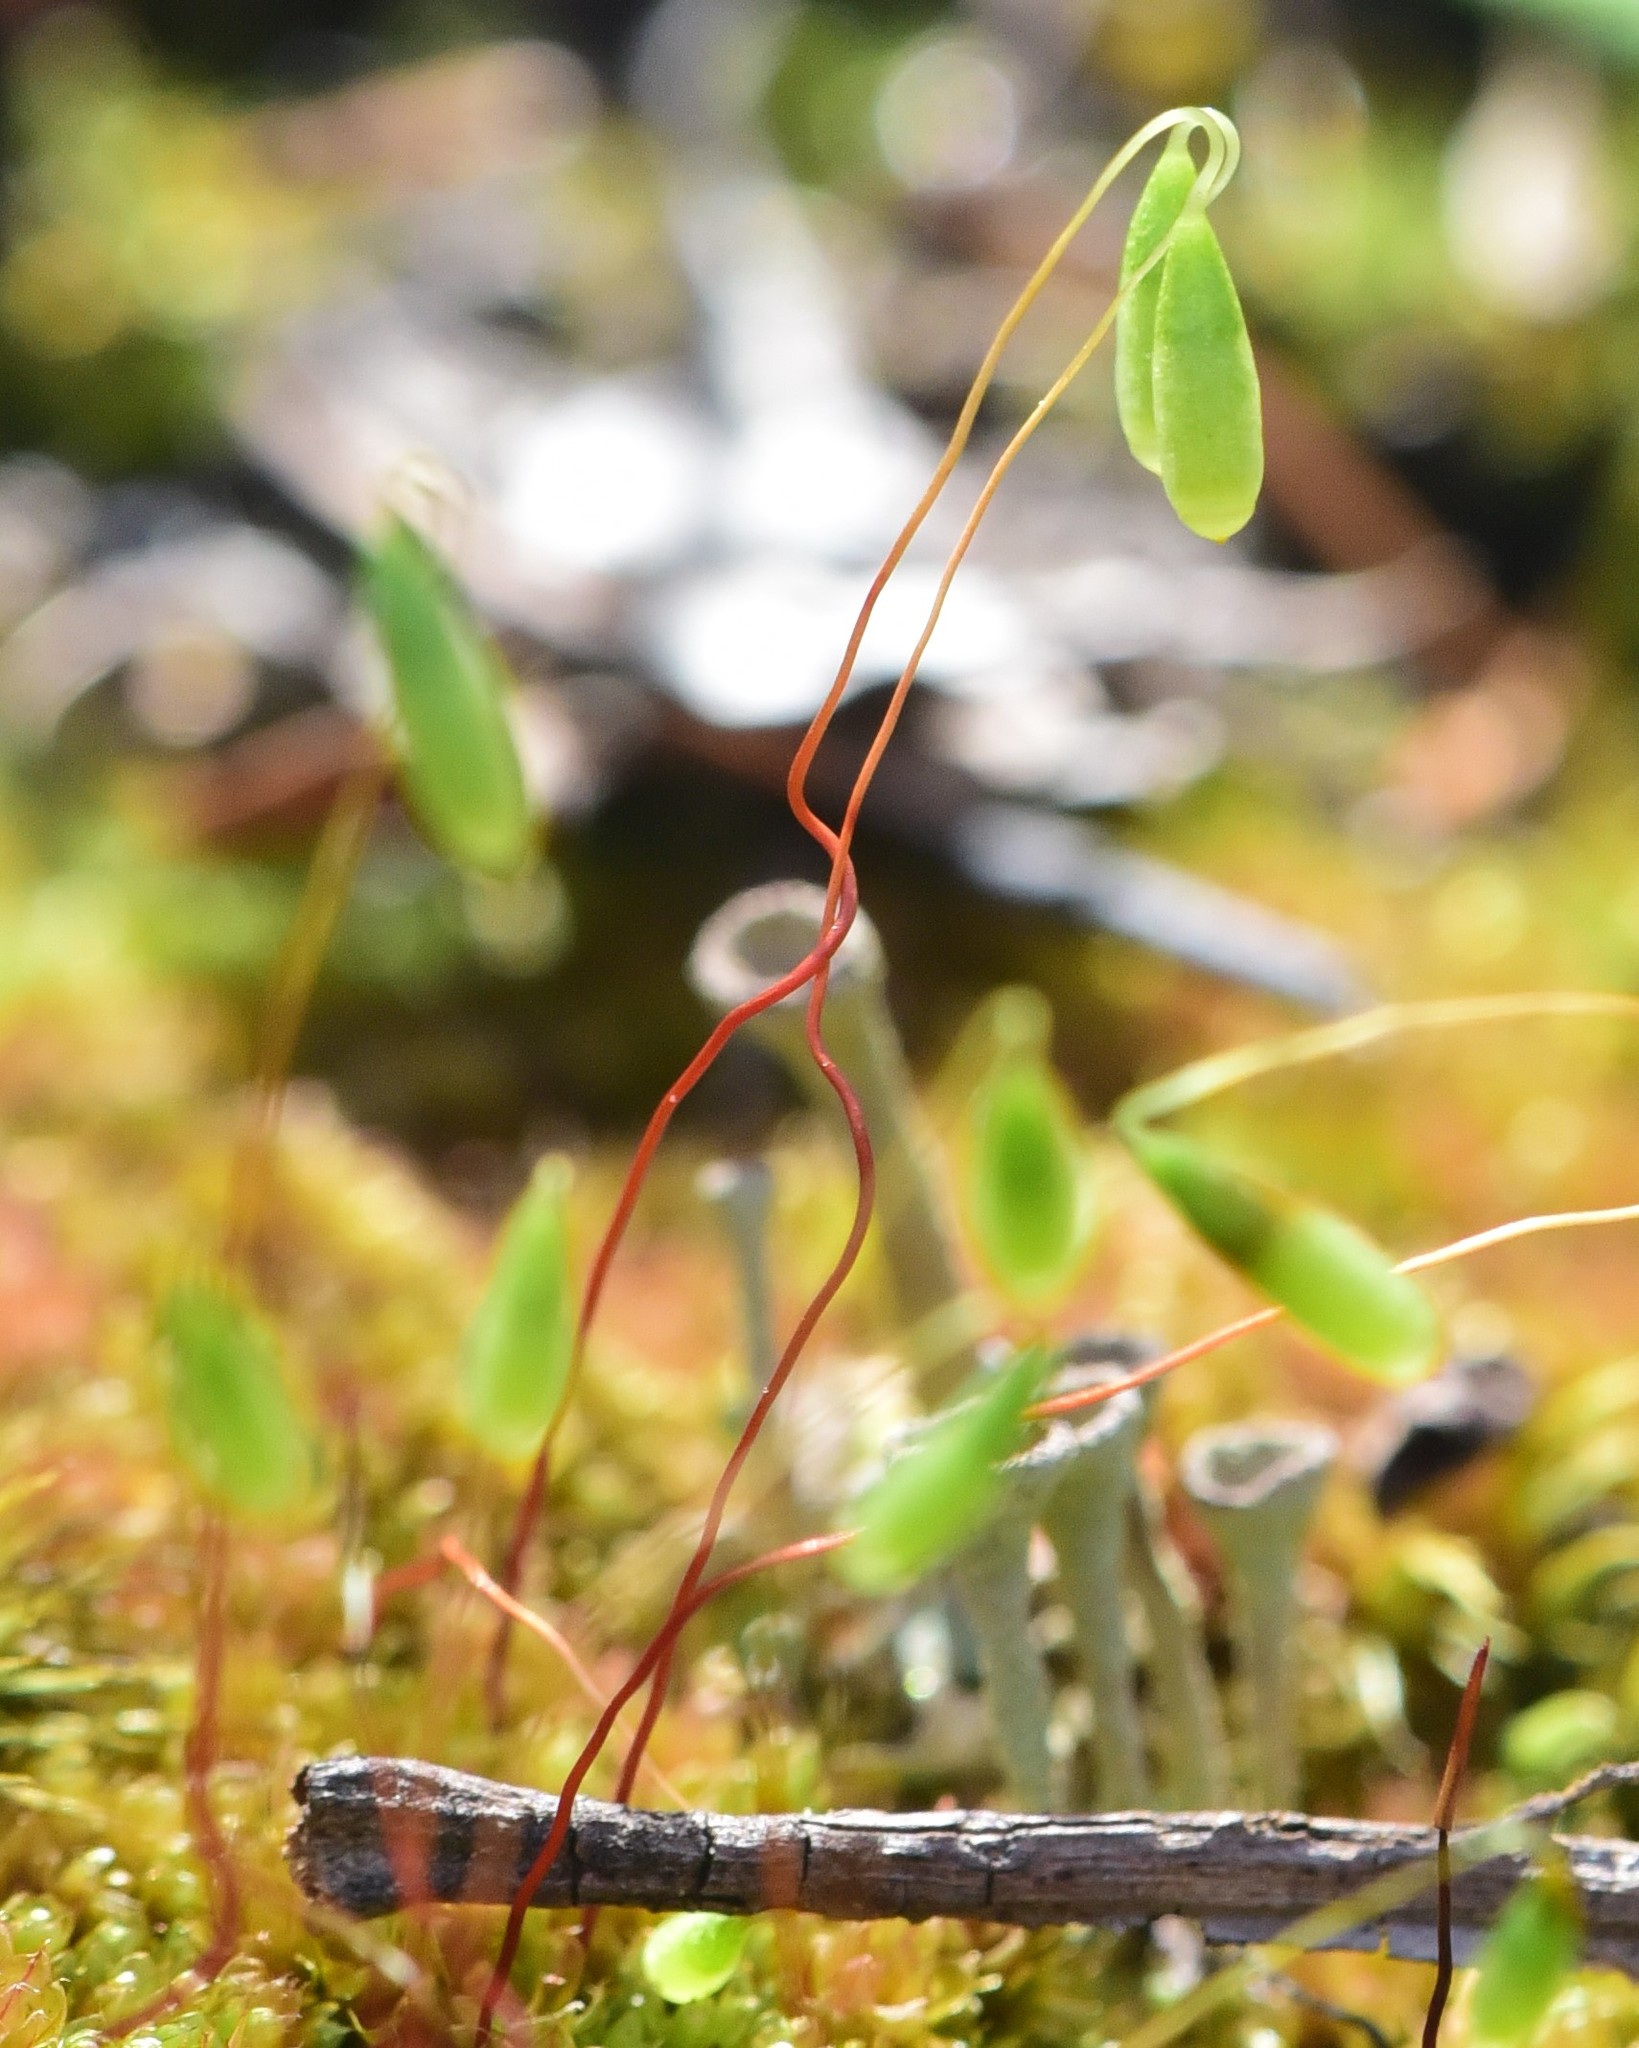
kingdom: Plantae
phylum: Bryophyta
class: Bryopsida
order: Bryales
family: Bryaceae
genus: Rosulabryum
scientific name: Rosulabryum capillare
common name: Capillary thread-moss
